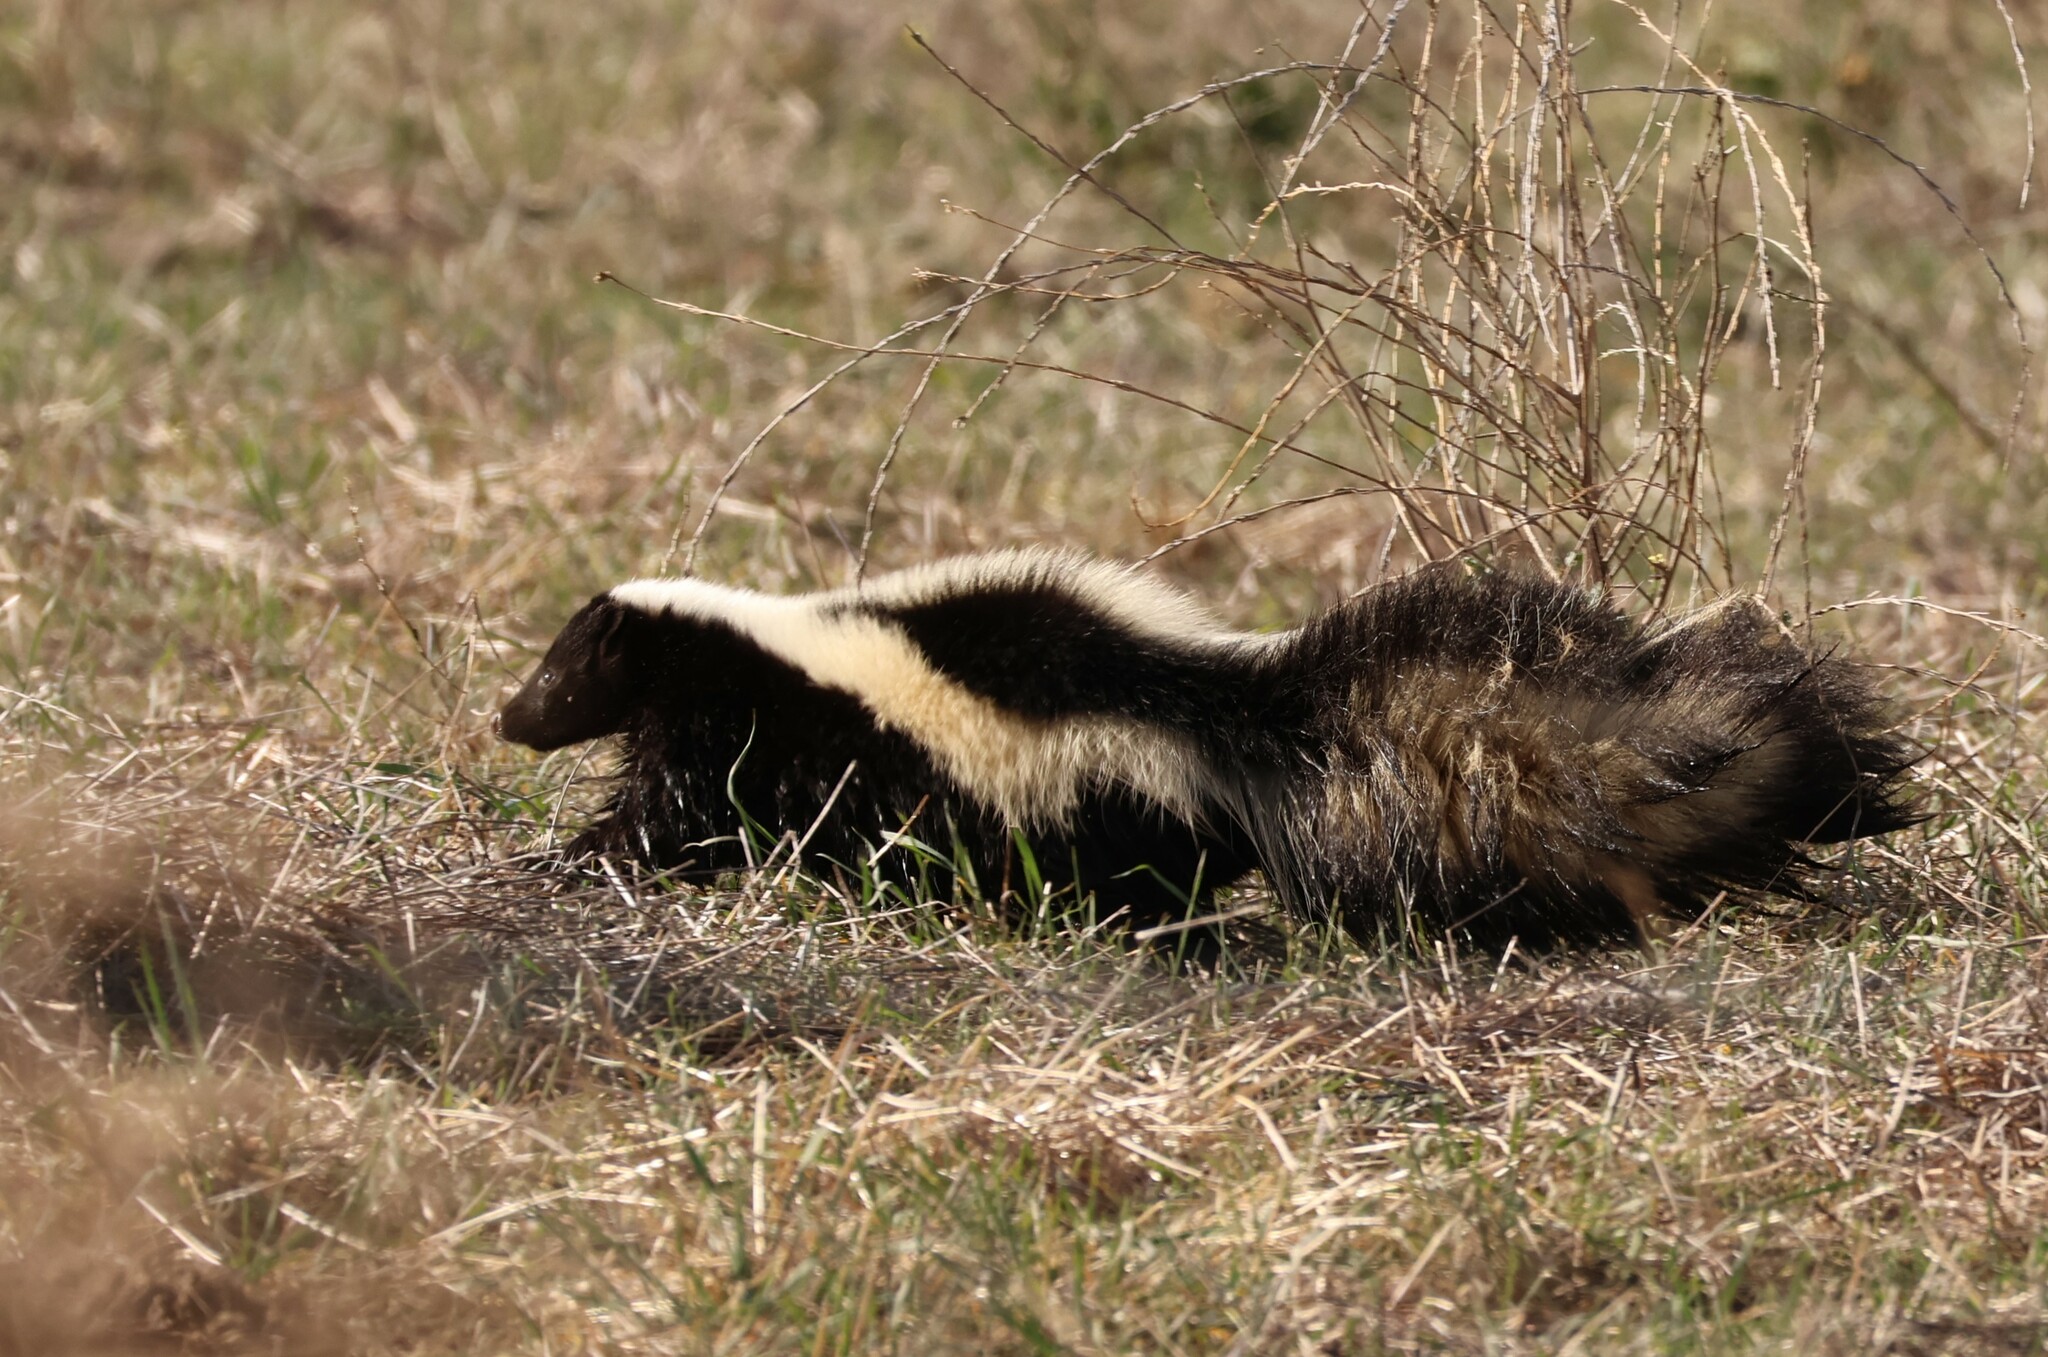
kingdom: Animalia
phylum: Chordata
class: Mammalia
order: Carnivora
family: Mephitidae
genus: Mephitis
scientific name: Mephitis mephitis
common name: Striped skunk
